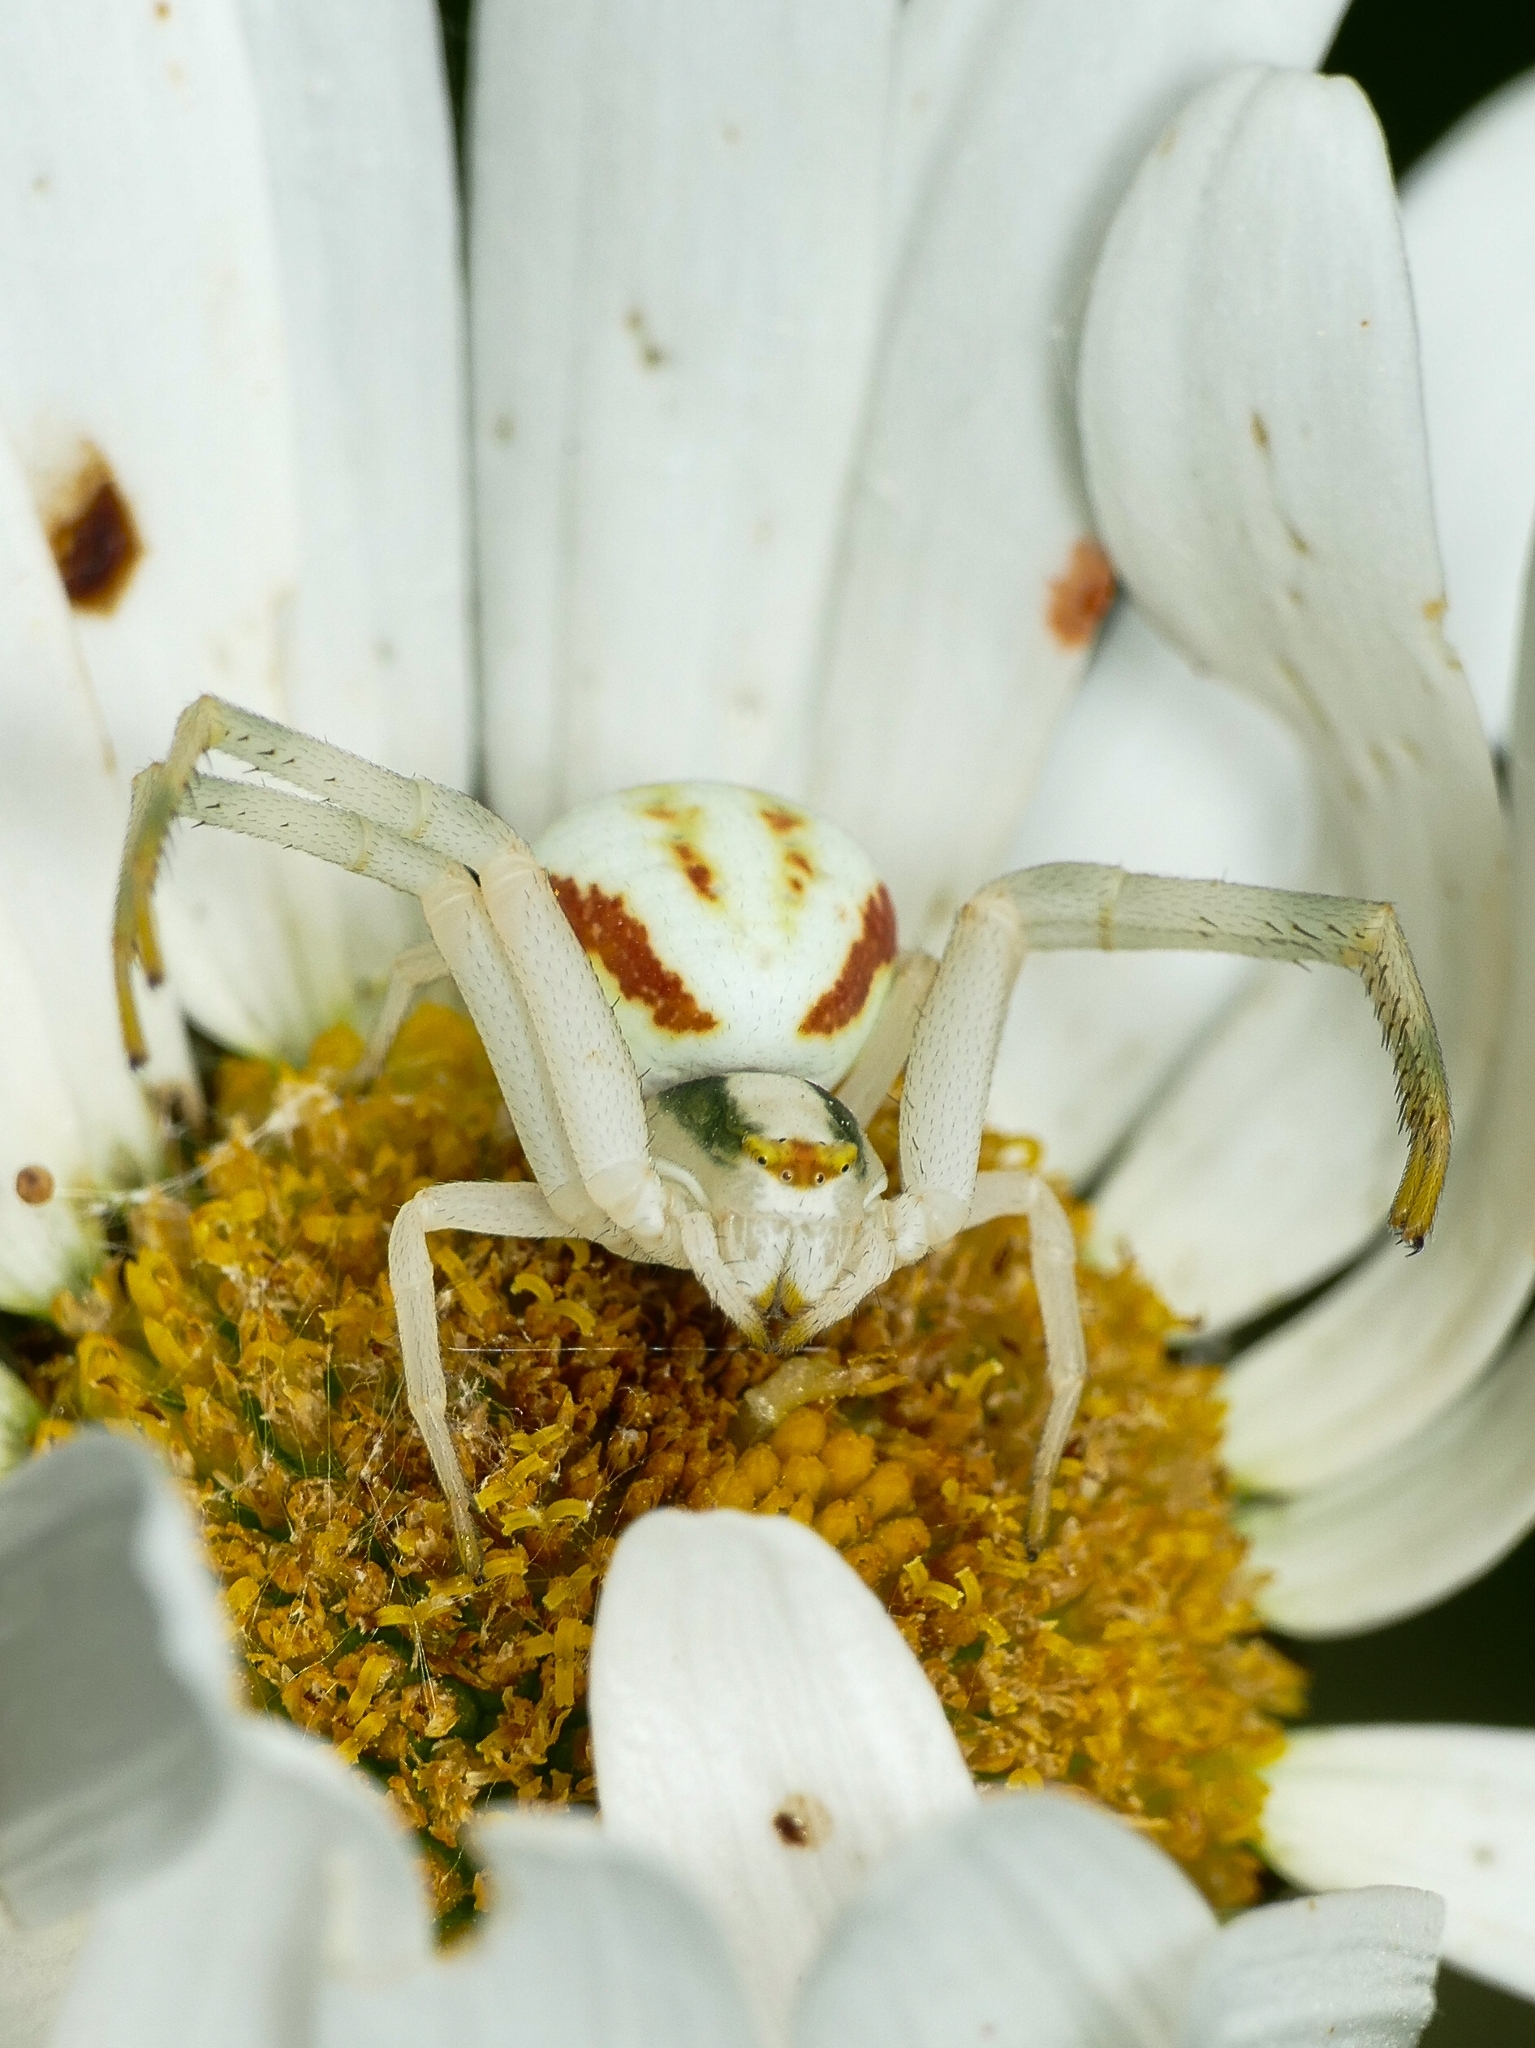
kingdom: Animalia
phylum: Arthropoda
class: Arachnida
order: Araneae
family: Thomisidae
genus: Misumena
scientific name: Misumena vatia
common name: Goldenrod crab spider
